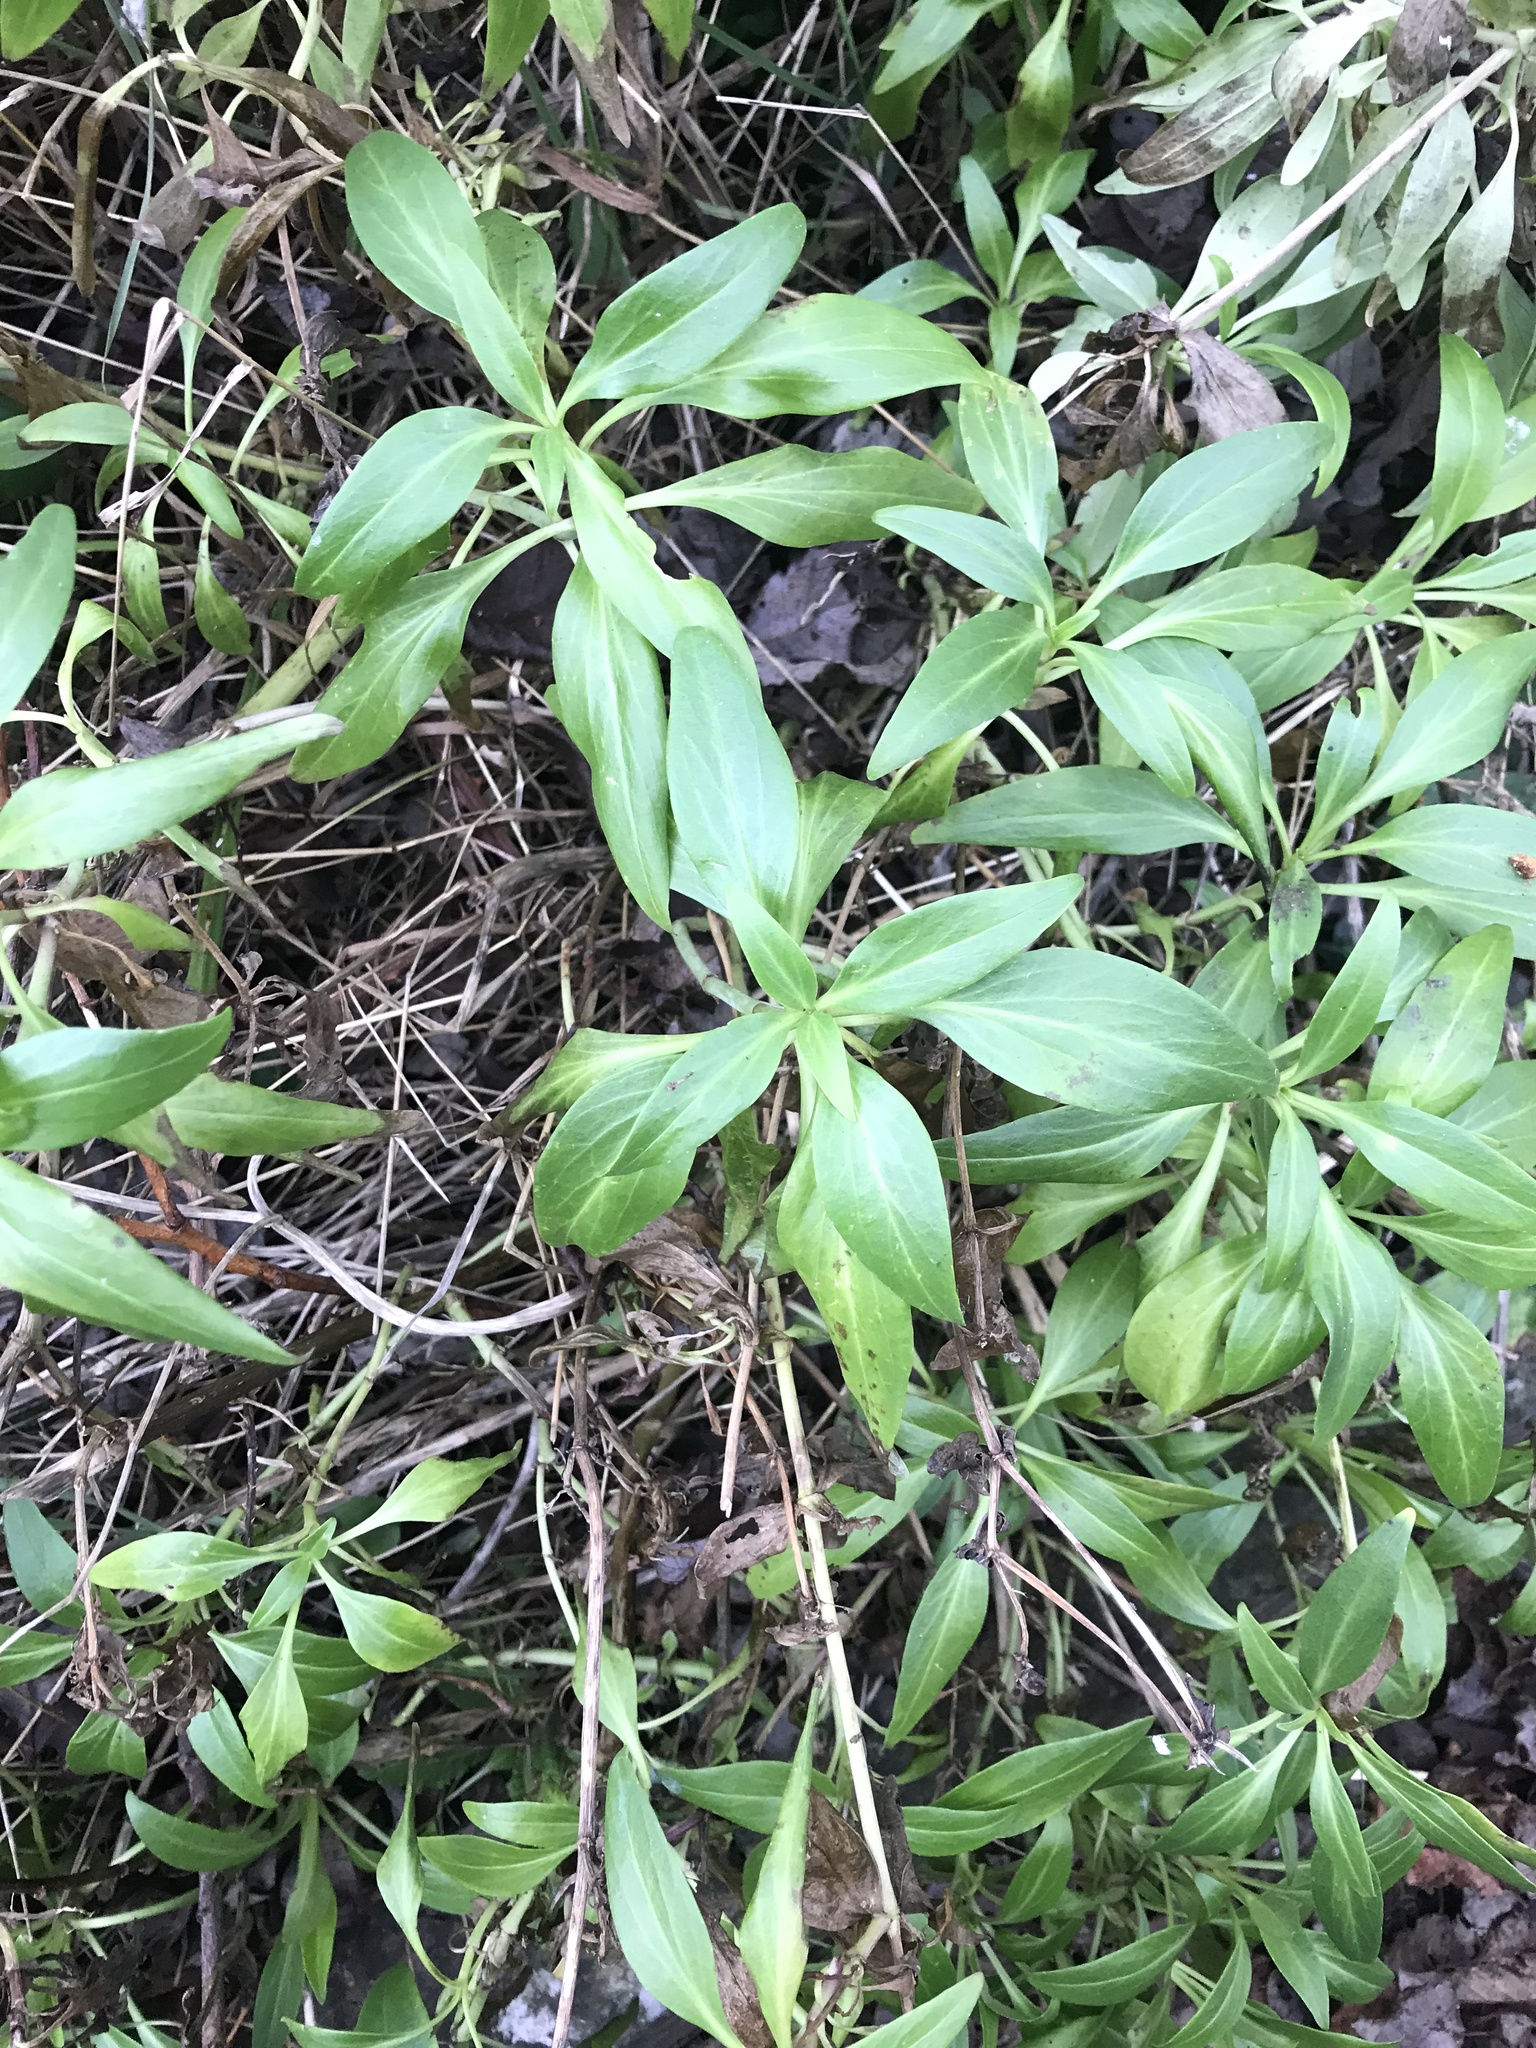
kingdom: Plantae
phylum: Tracheophyta
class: Magnoliopsida
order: Dipsacales
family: Caprifoliaceae
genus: Centranthus
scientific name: Centranthus ruber
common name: Red valerian
